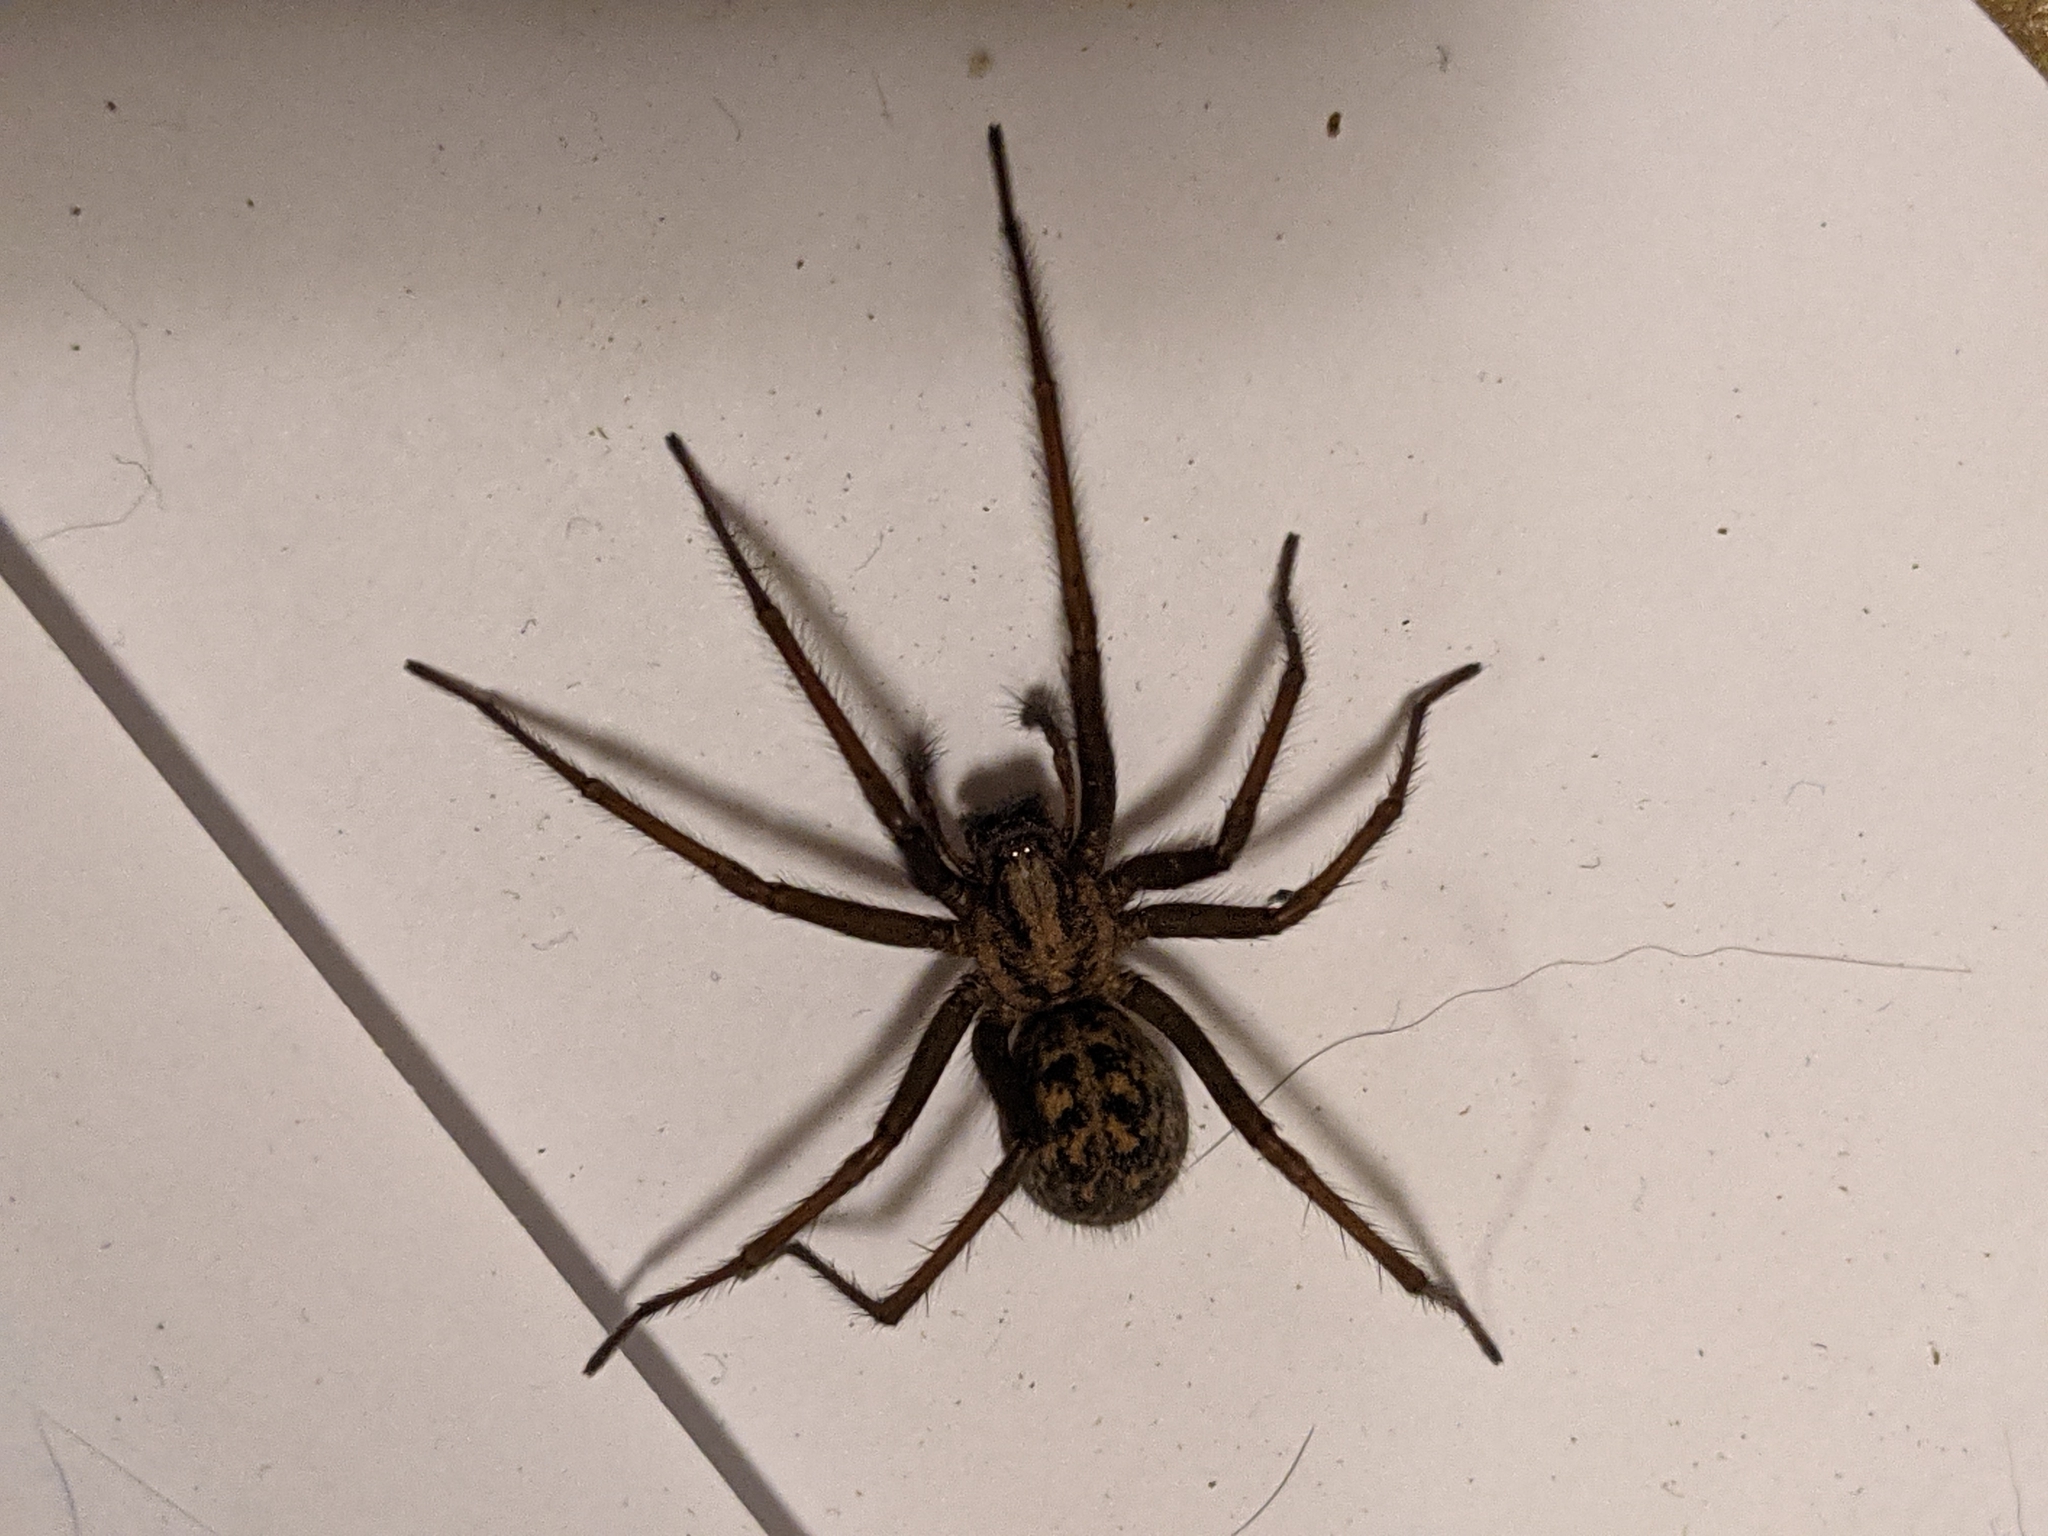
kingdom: Animalia
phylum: Arthropoda
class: Arachnida
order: Araneae
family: Agelenidae
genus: Eratigena
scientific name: Eratigena duellica
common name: Giant house spider
